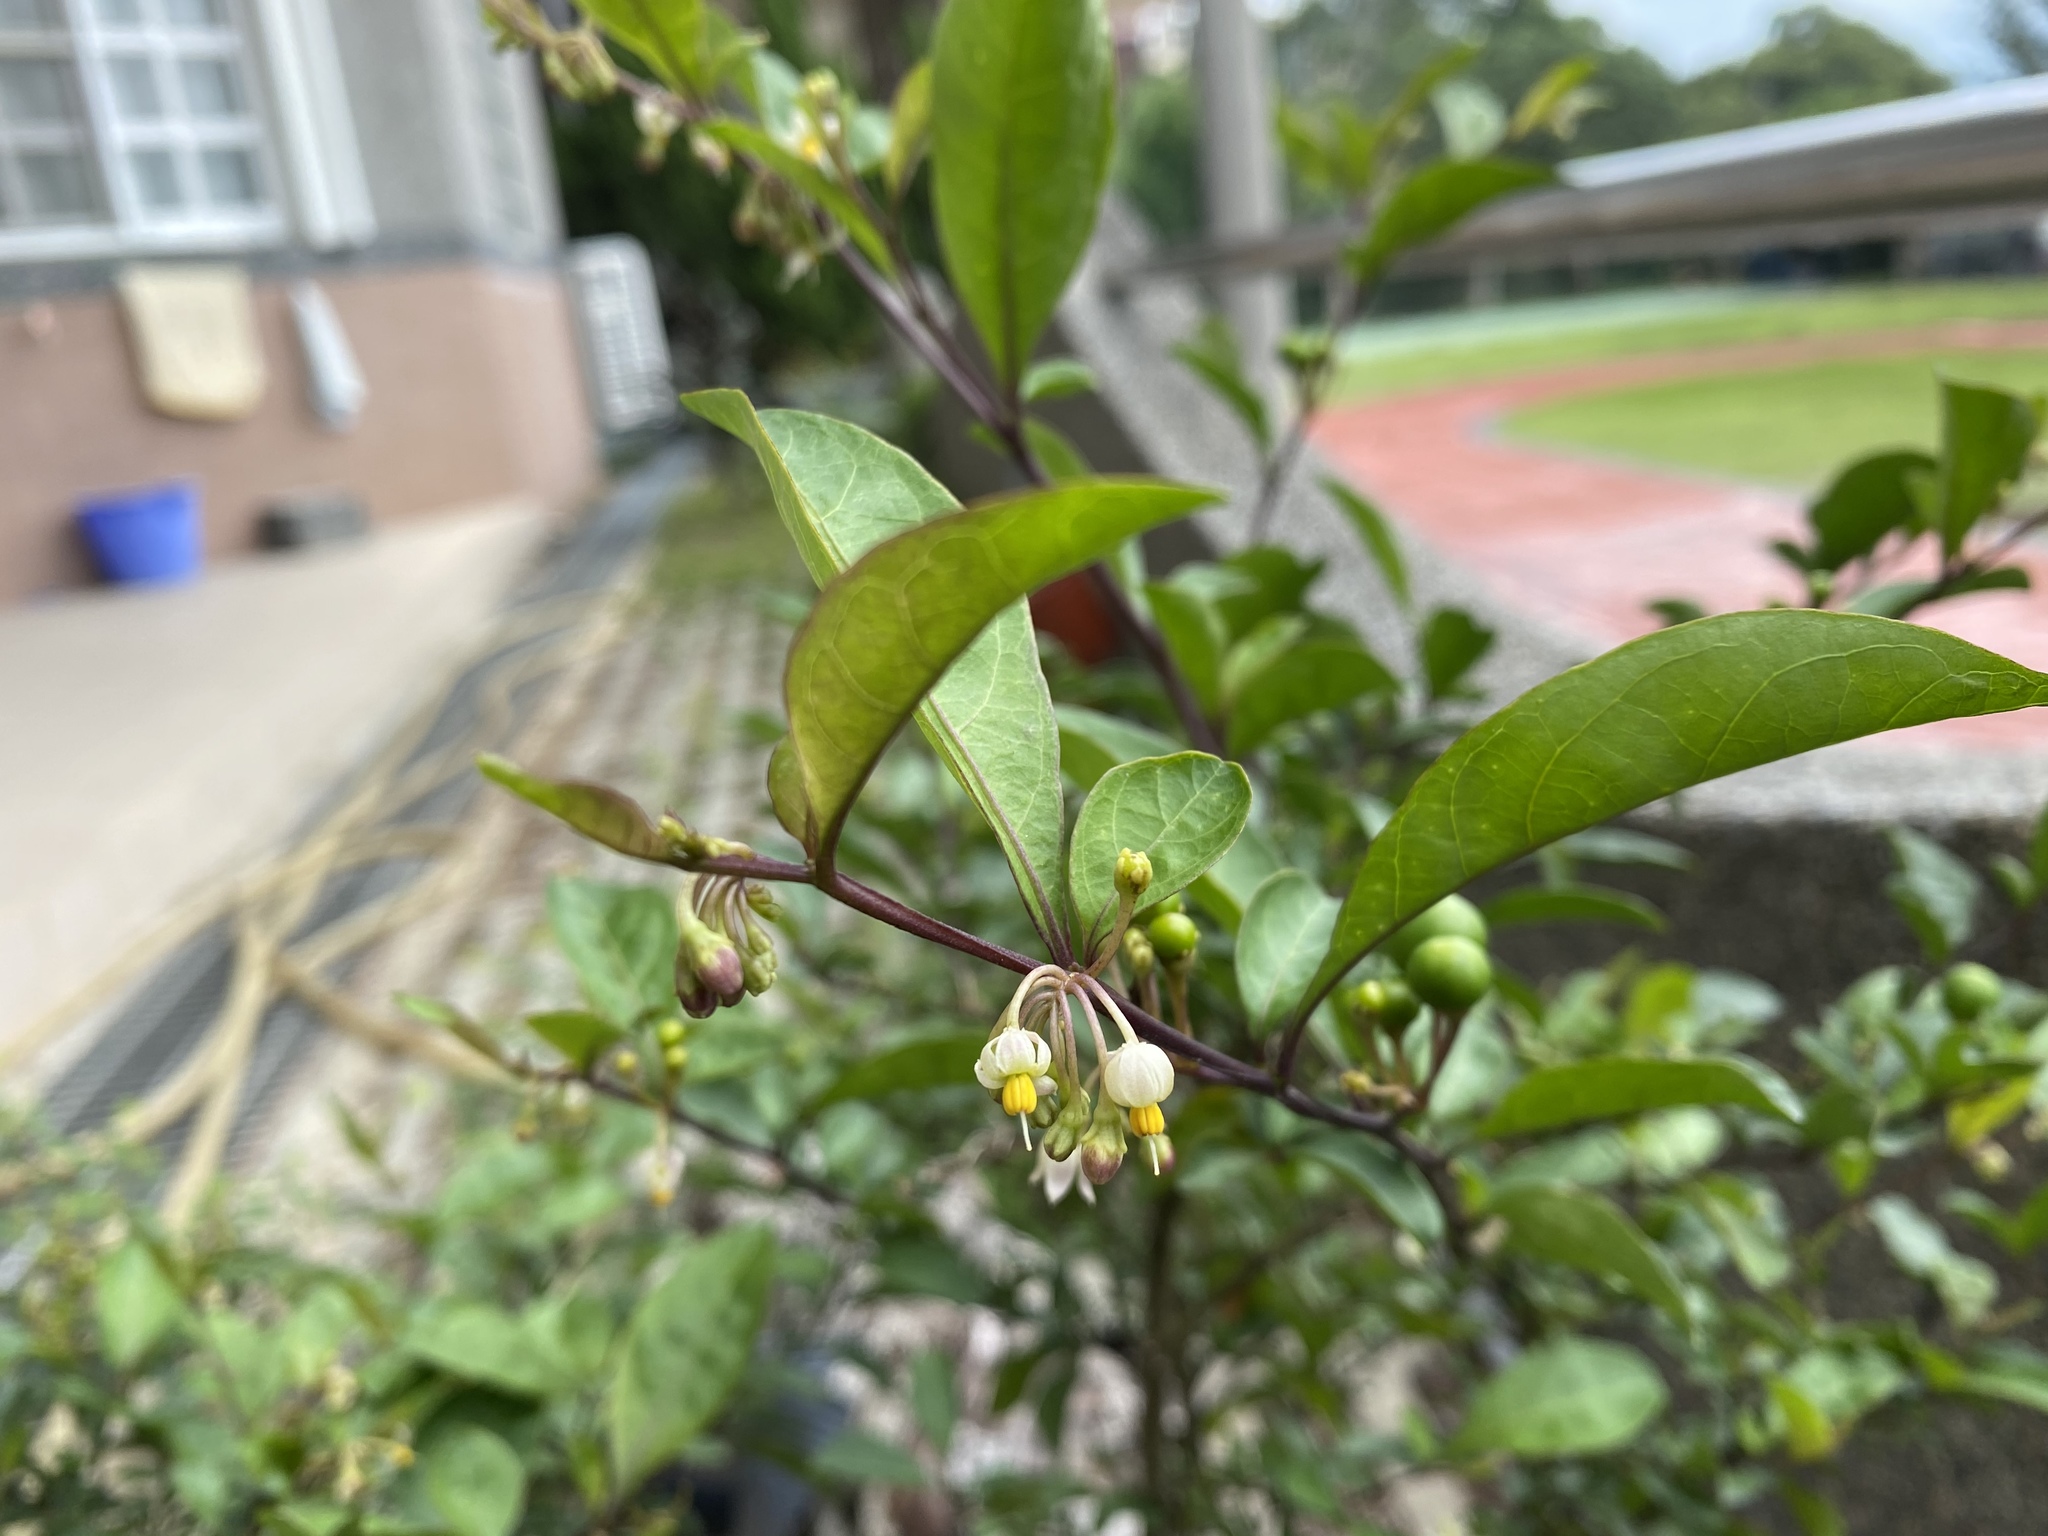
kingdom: Plantae
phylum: Tracheophyta
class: Magnoliopsida
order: Solanales
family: Solanaceae
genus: Solanum
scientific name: Solanum diphyllum
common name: Twoleaf nightshade
